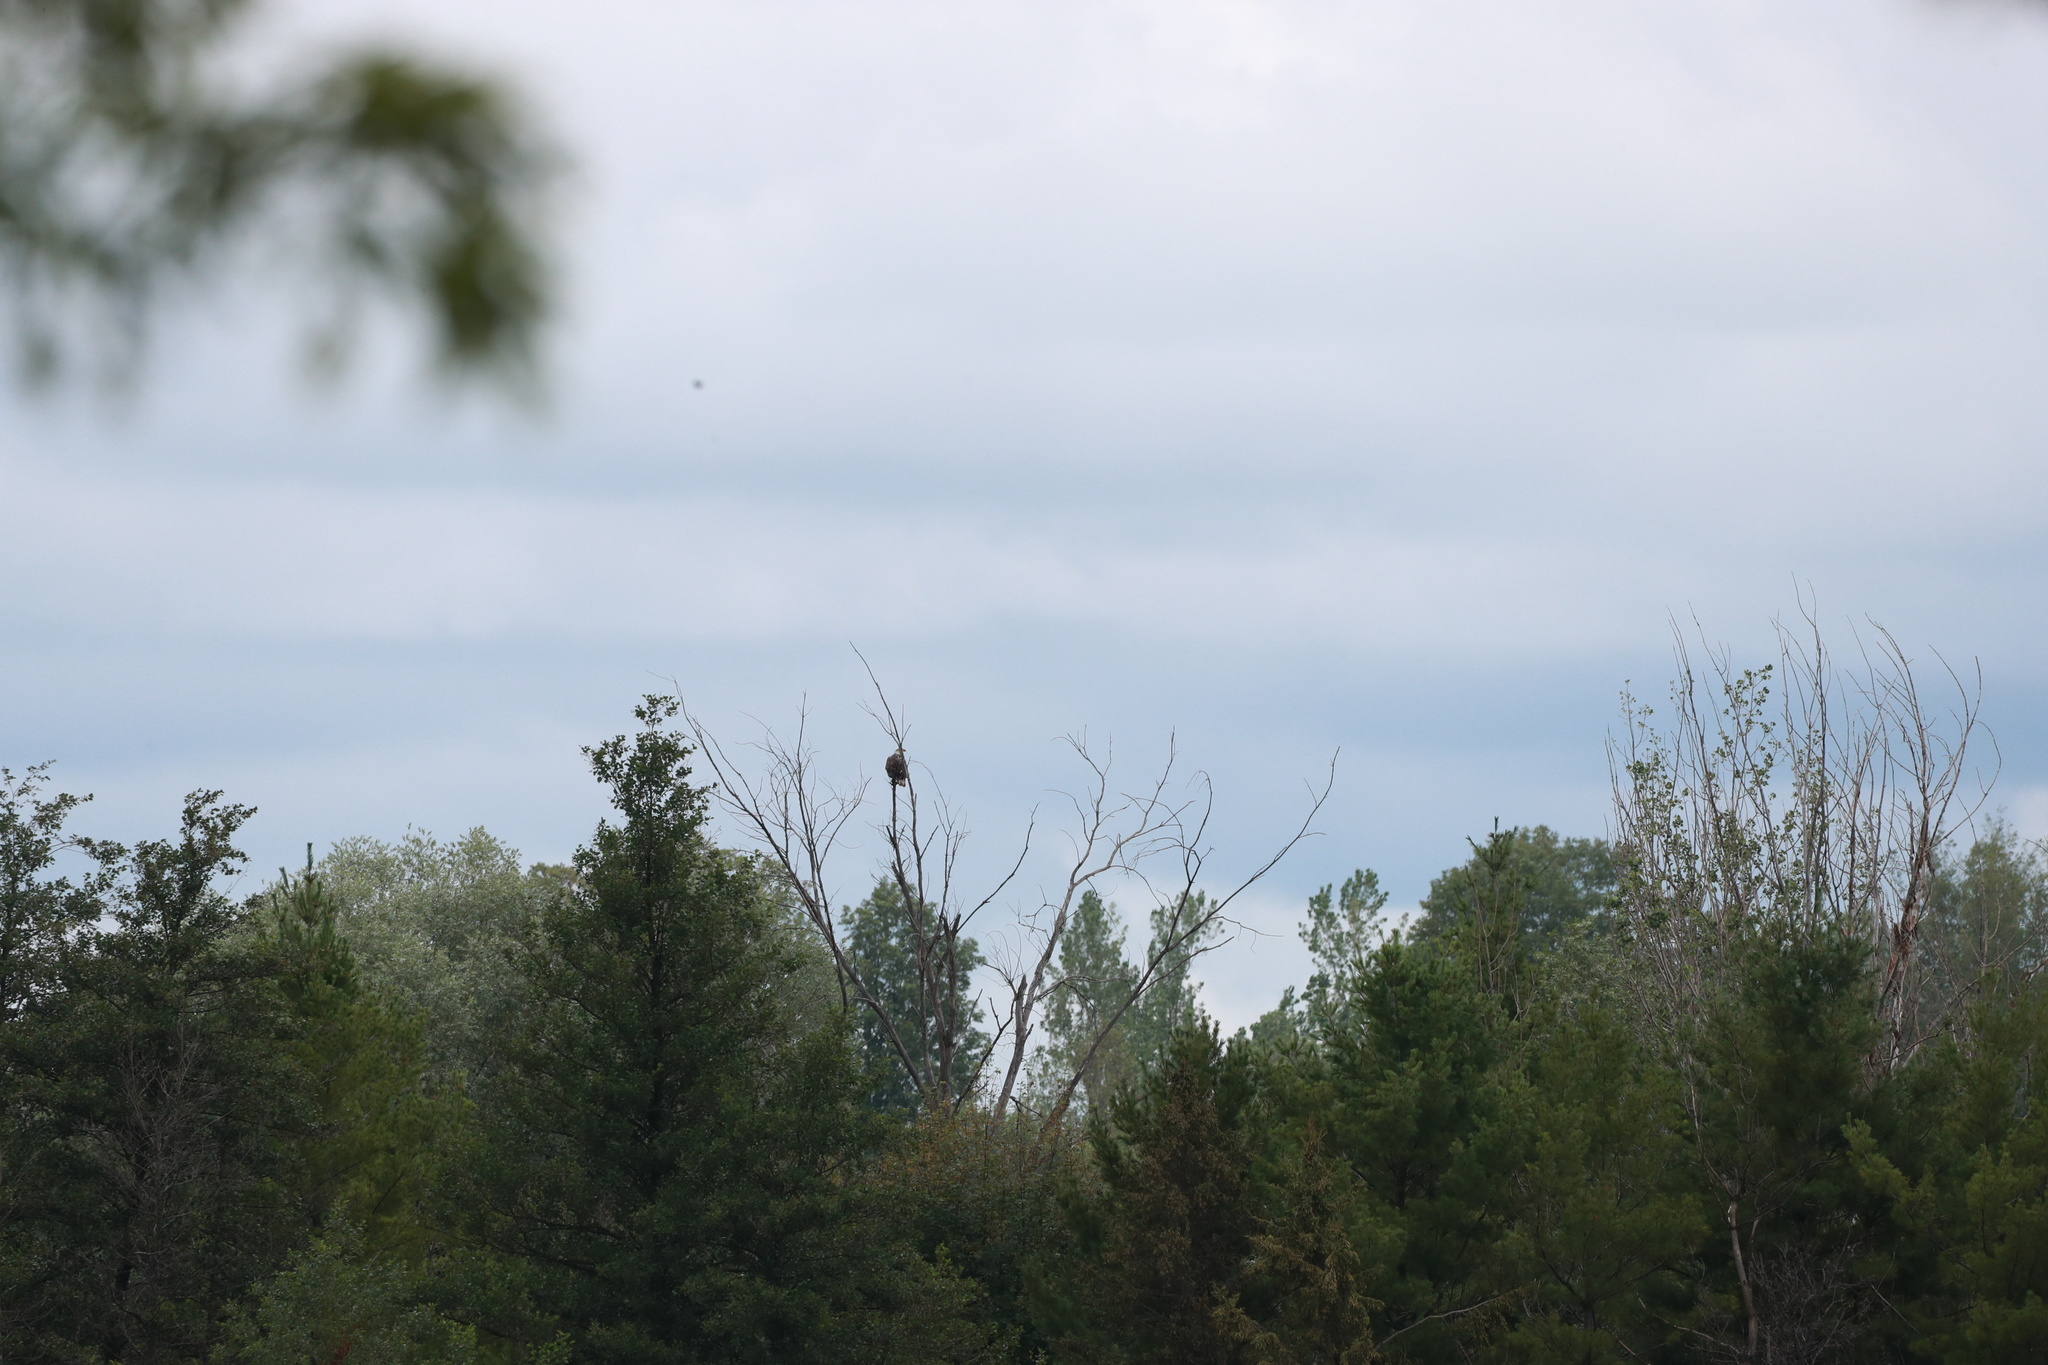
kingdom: Animalia
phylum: Chordata
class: Aves
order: Accipitriformes
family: Accipitridae
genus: Haliaeetus
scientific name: Haliaeetus leucocephalus
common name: Bald eagle
